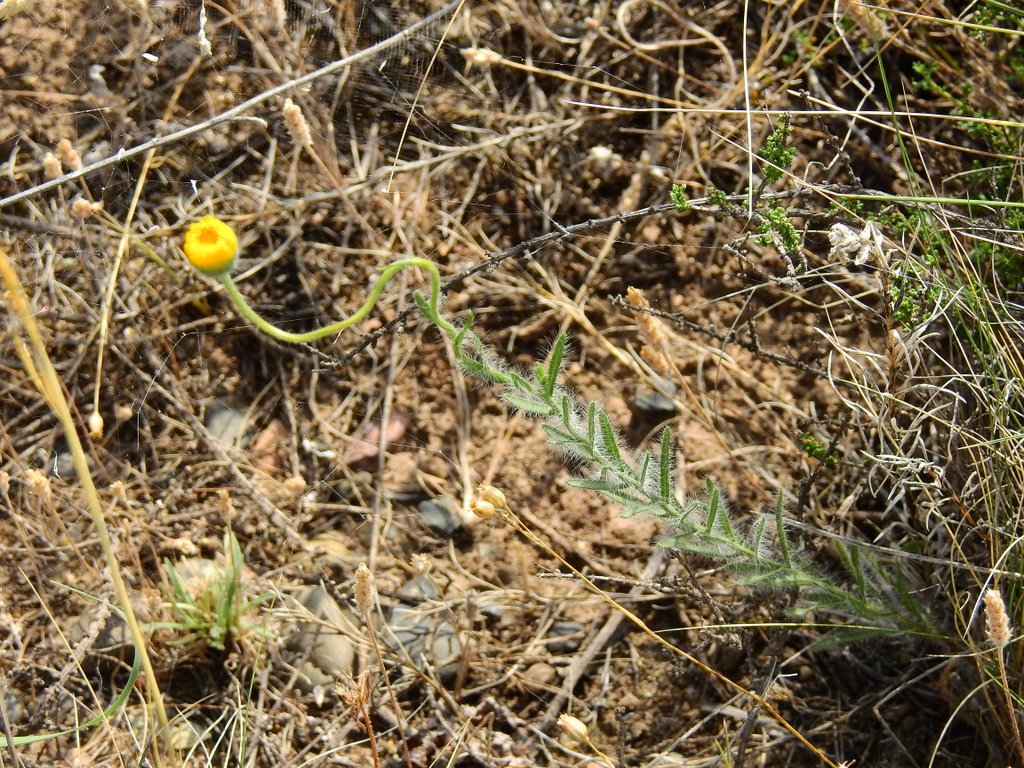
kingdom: Plantae
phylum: Tracheophyta
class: Magnoliopsida
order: Asterales
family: Asteraceae
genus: Hysterionica
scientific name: Hysterionica jasionoides
